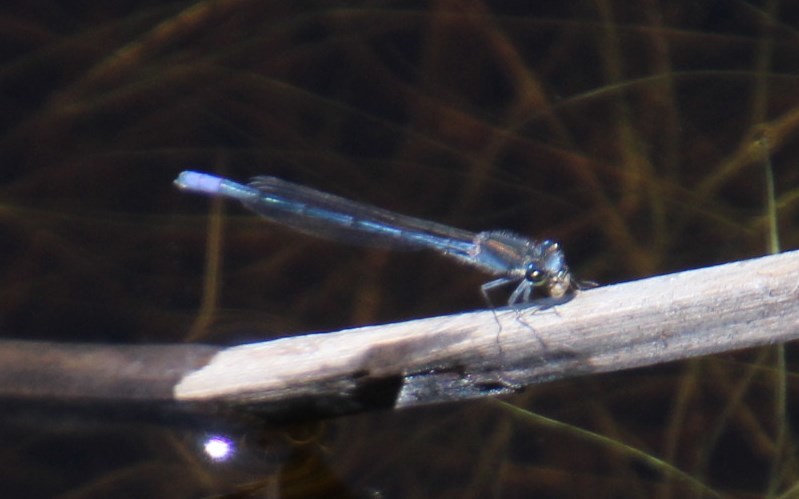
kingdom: Animalia
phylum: Arthropoda
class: Insecta
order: Odonata
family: Coenagrionidae
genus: Pseudagrion
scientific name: Pseudagrion draconis
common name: Mountain sprite
